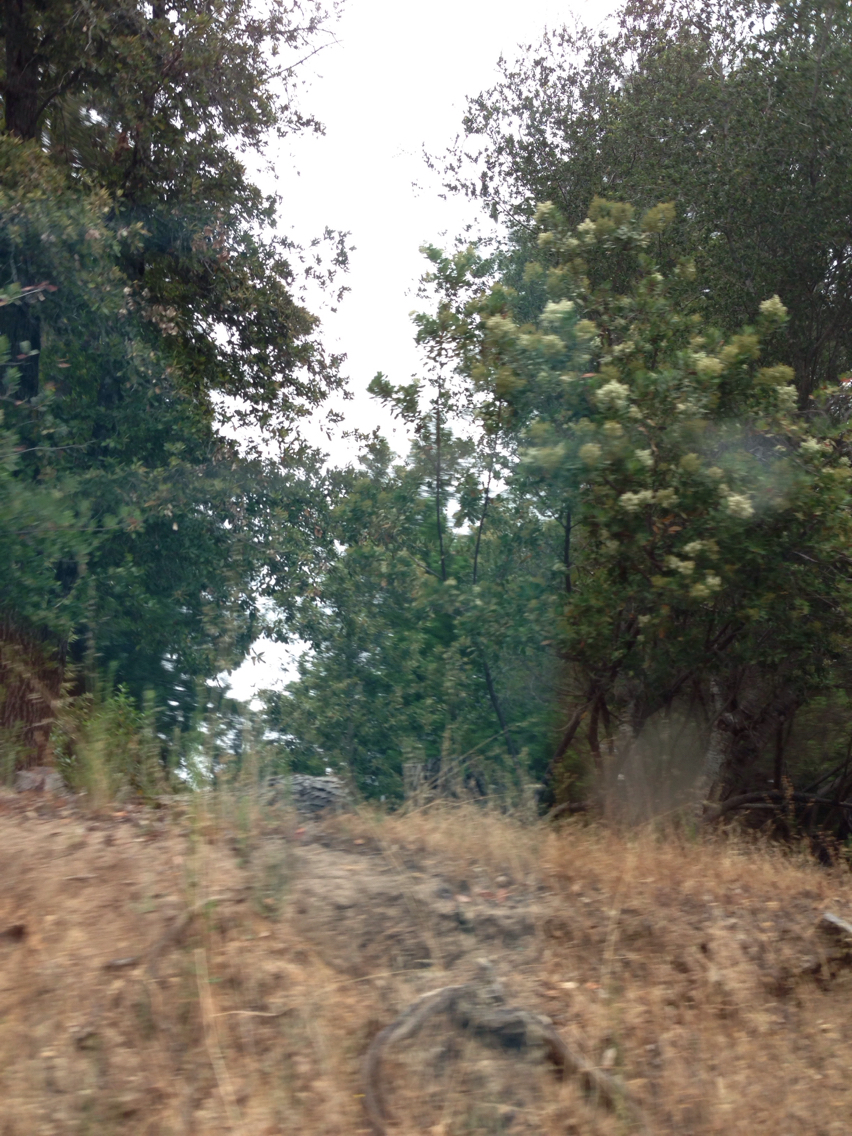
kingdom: Plantae
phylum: Tracheophyta
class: Magnoliopsida
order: Rosales
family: Rosaceae
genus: Heteromeles
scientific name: Heteromeles arbutifolia
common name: California-holly
